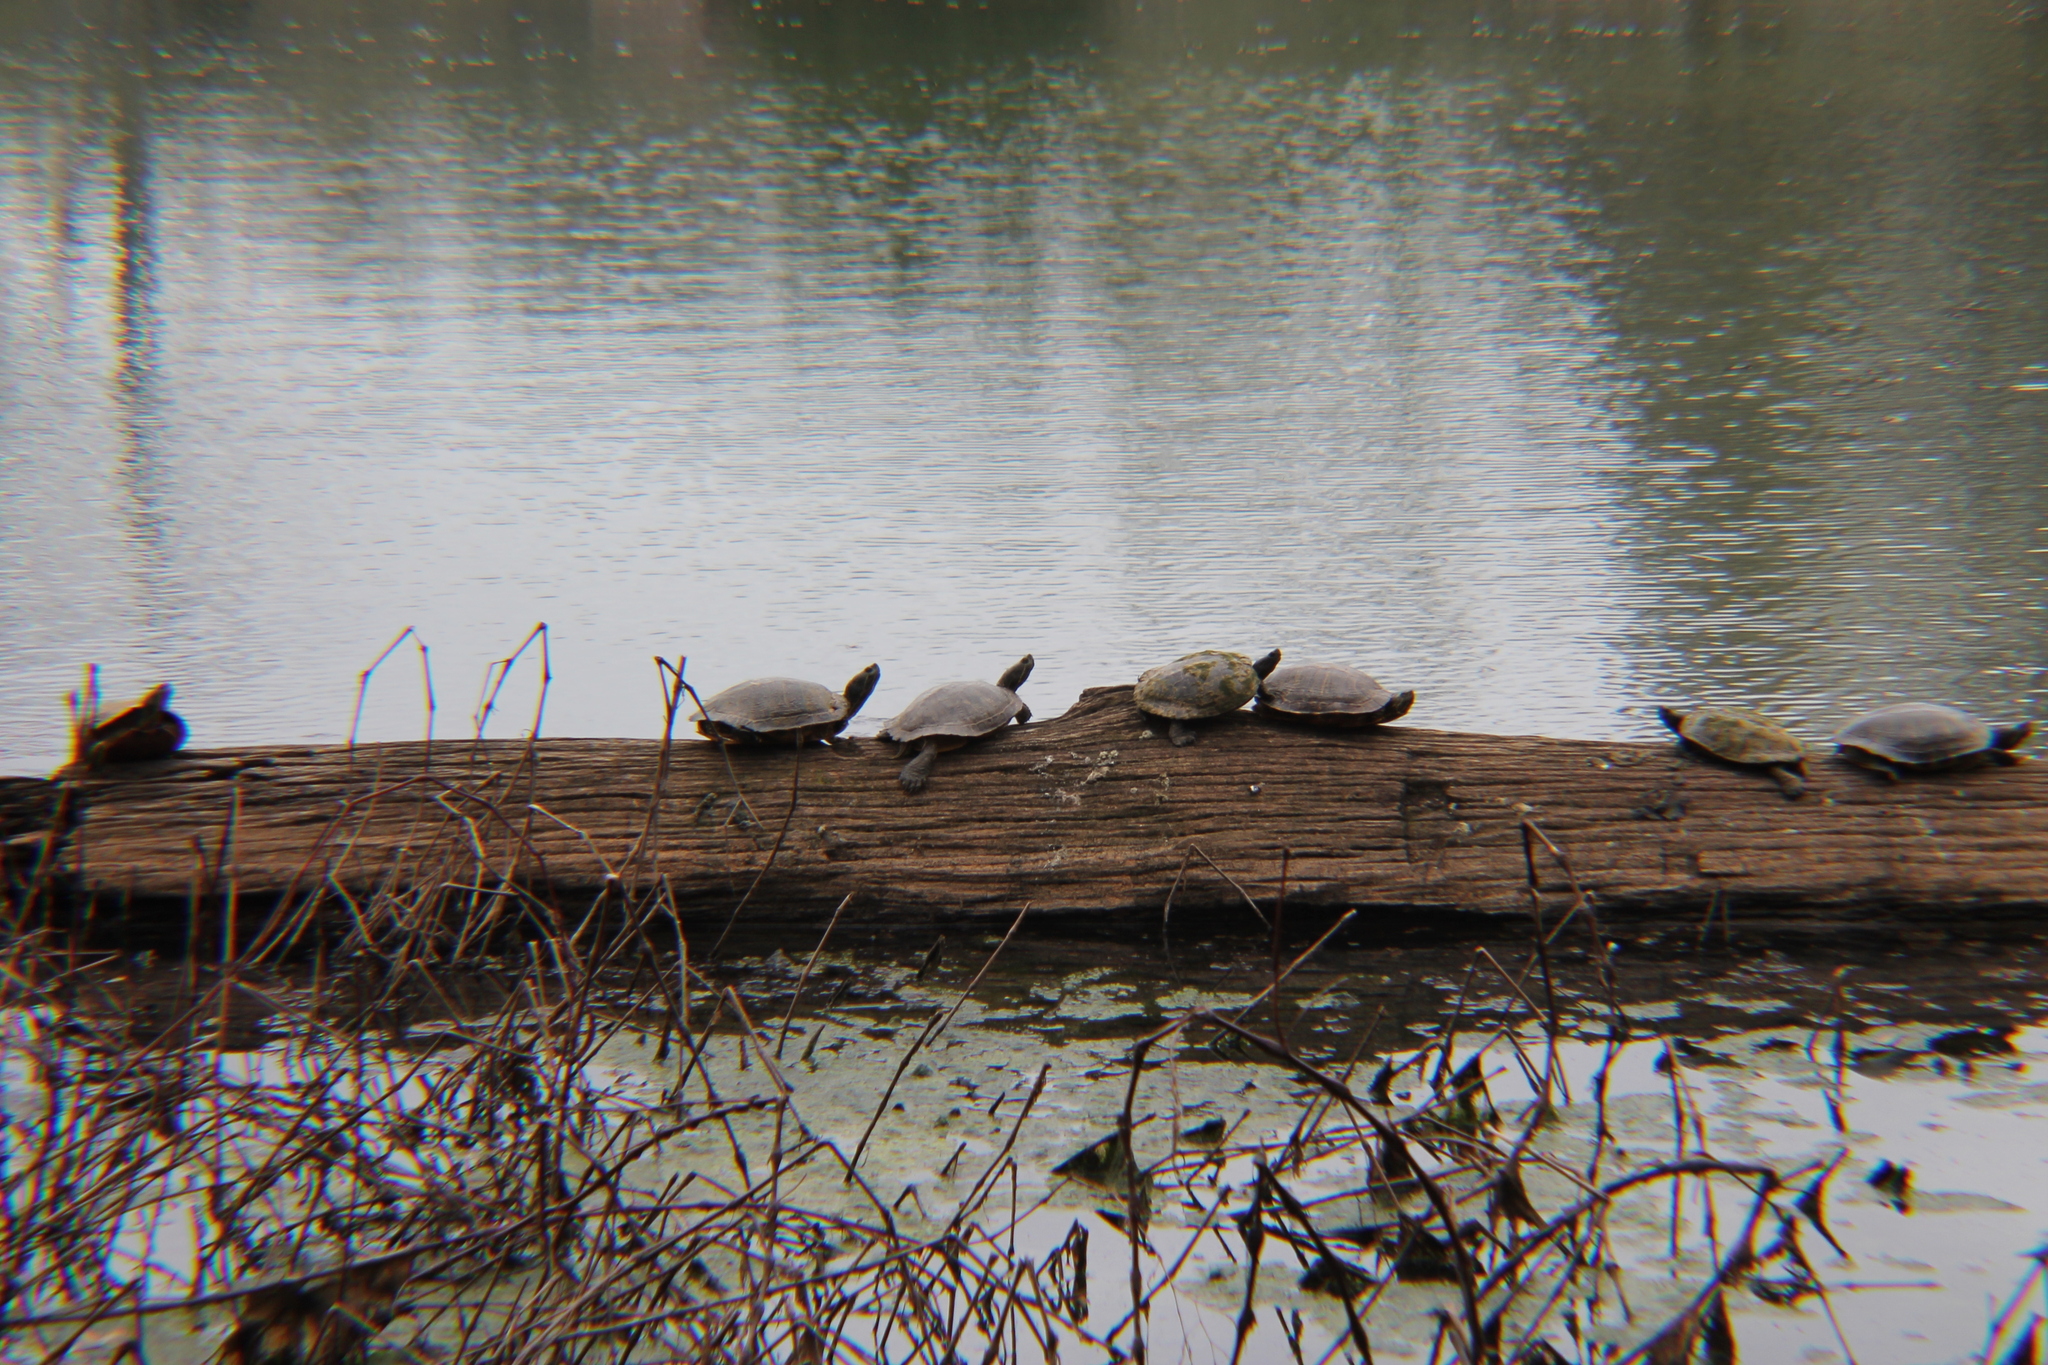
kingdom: Animalia
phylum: Chordata
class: Testudines
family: Emydidae
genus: Trachemys
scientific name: Trachemys scripta
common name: Slider
